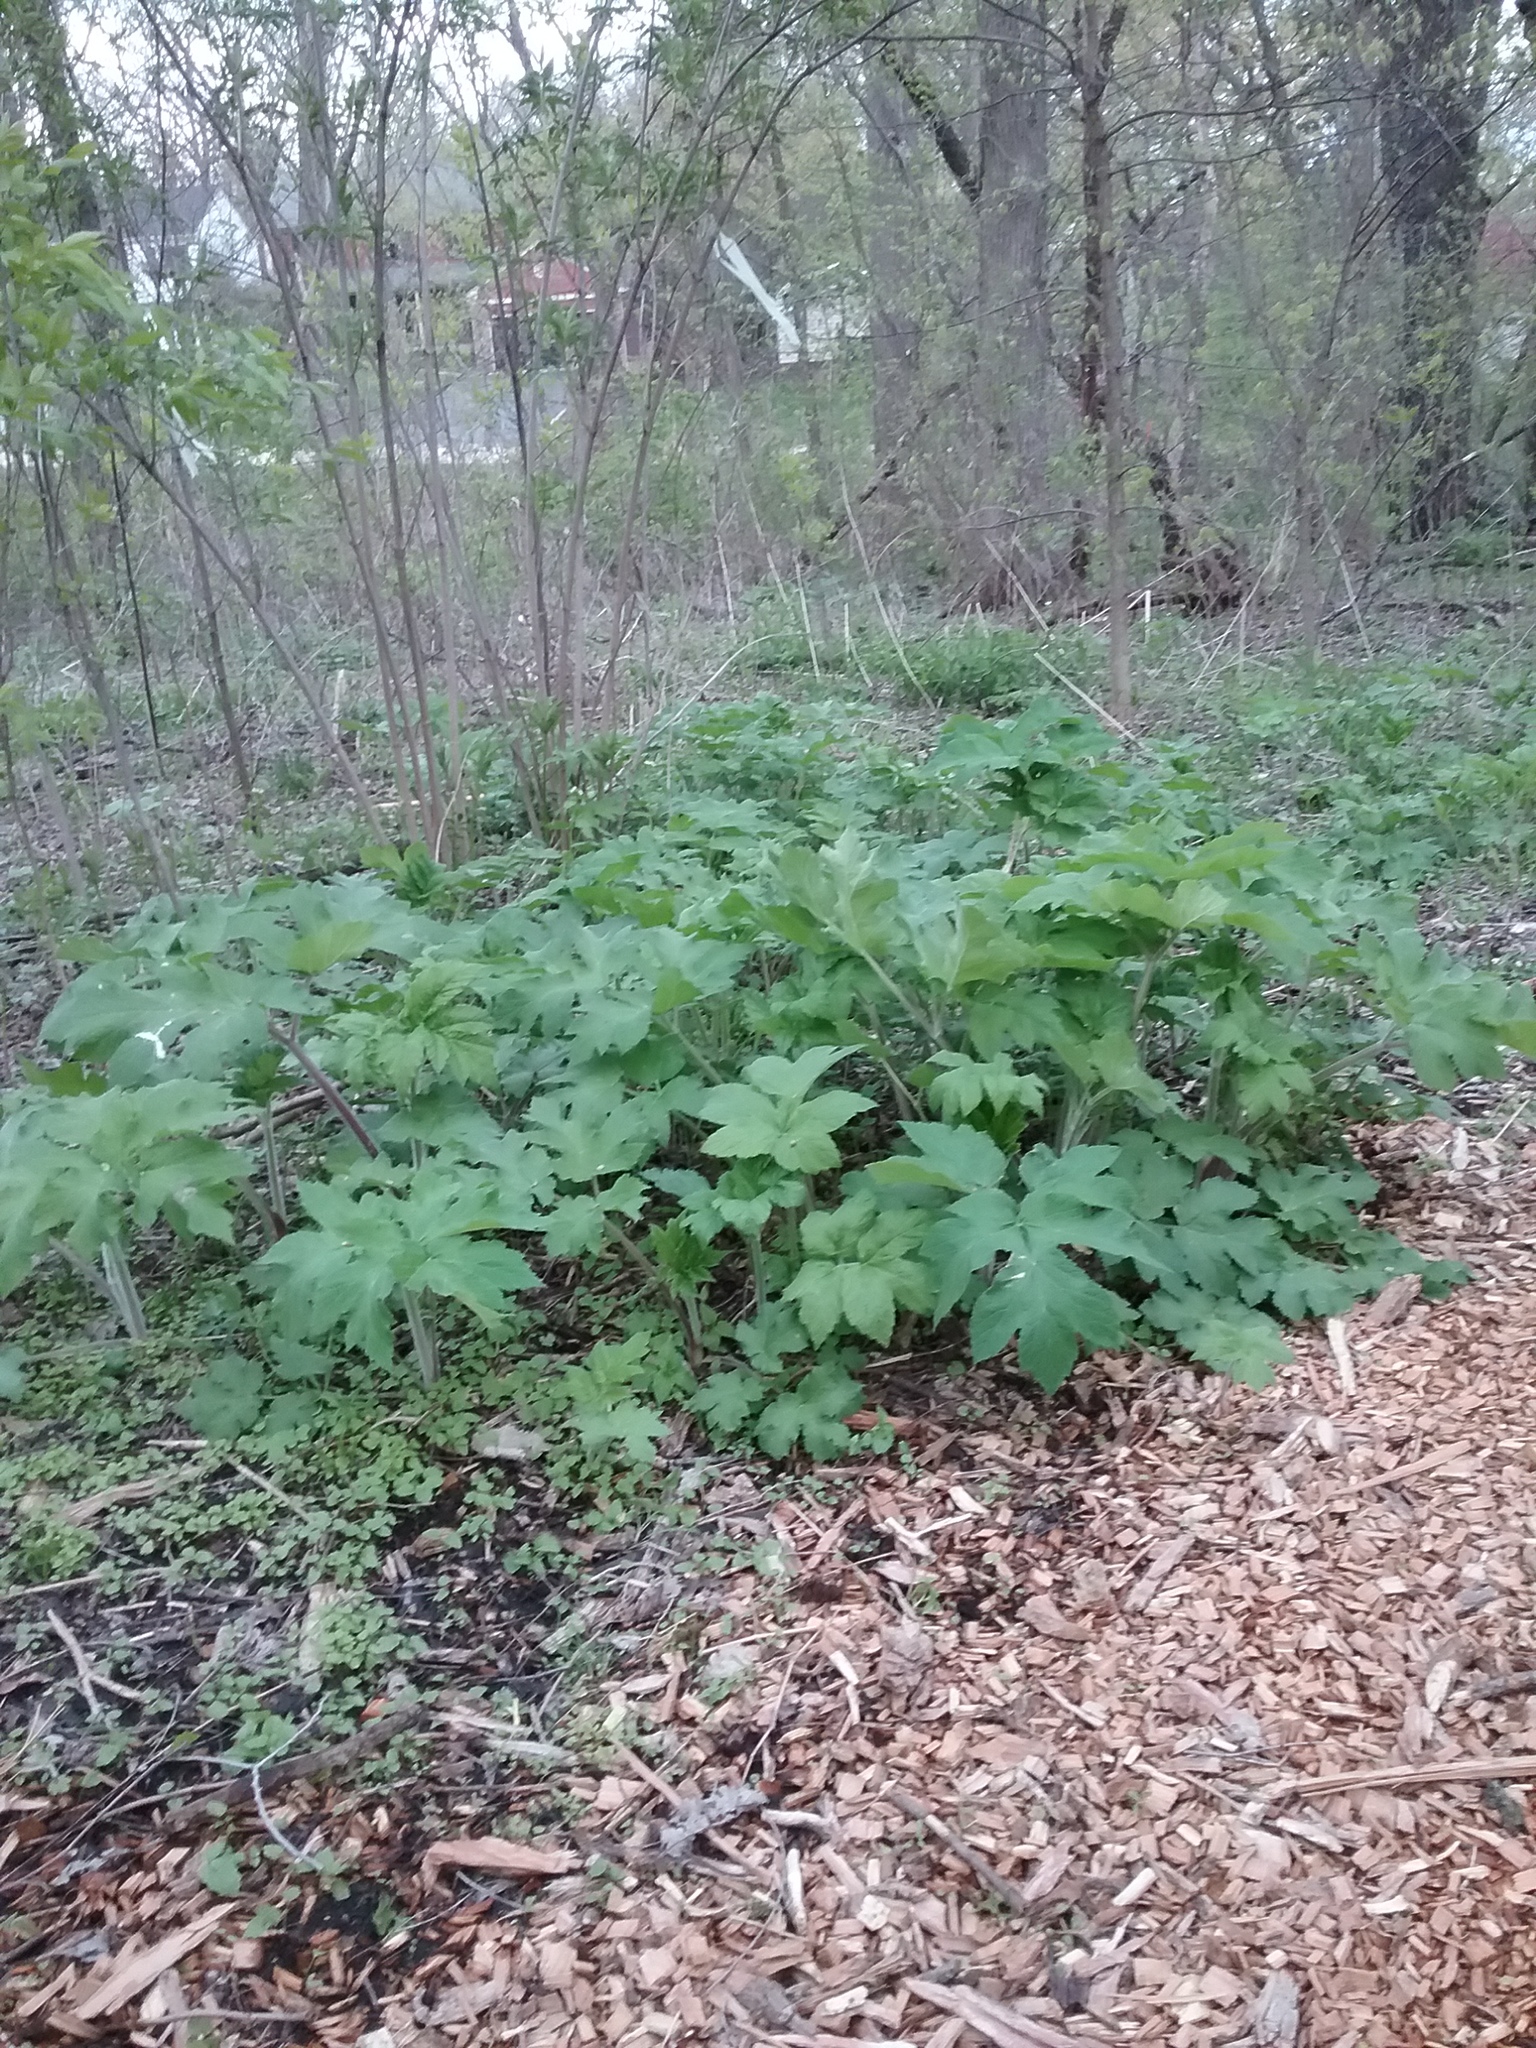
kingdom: Plantae
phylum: Tracheophyta
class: Magnoliopsida
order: Apiales
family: Apiaceae
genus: Heracleum
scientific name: Heracleum maximum
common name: American cow parsnip
